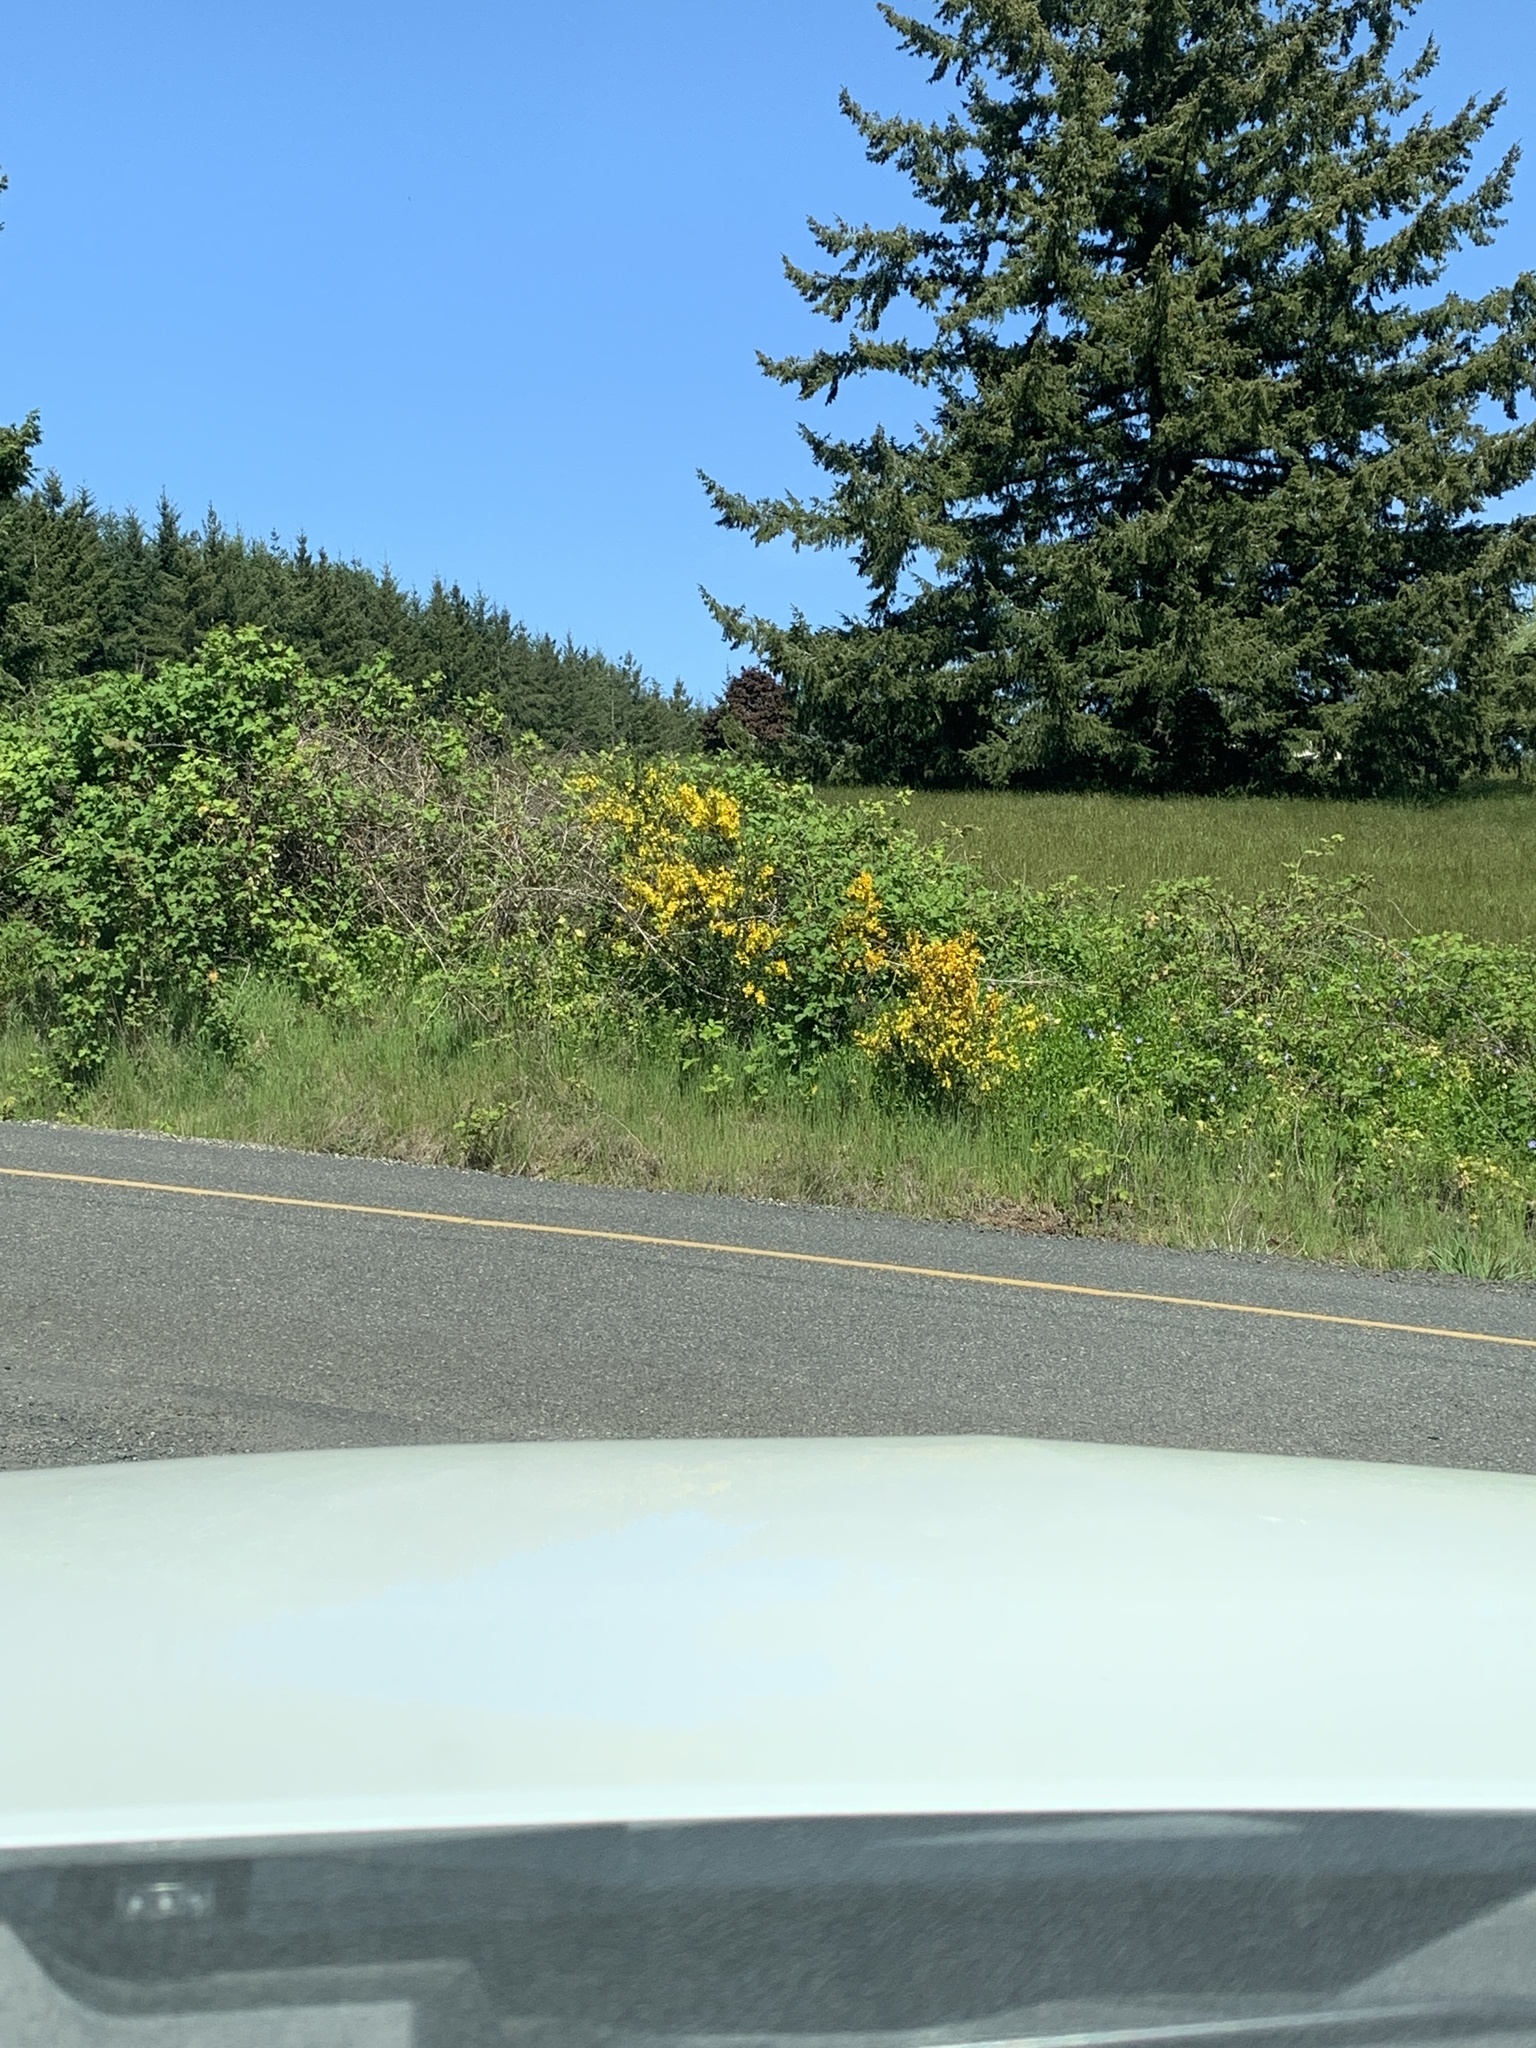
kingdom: Plantae
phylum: Tracheophyta
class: Magnoliopsida
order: Fabales
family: Fabaceae
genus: Cytisus
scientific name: Cytisus scoparius
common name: Scotch broom
